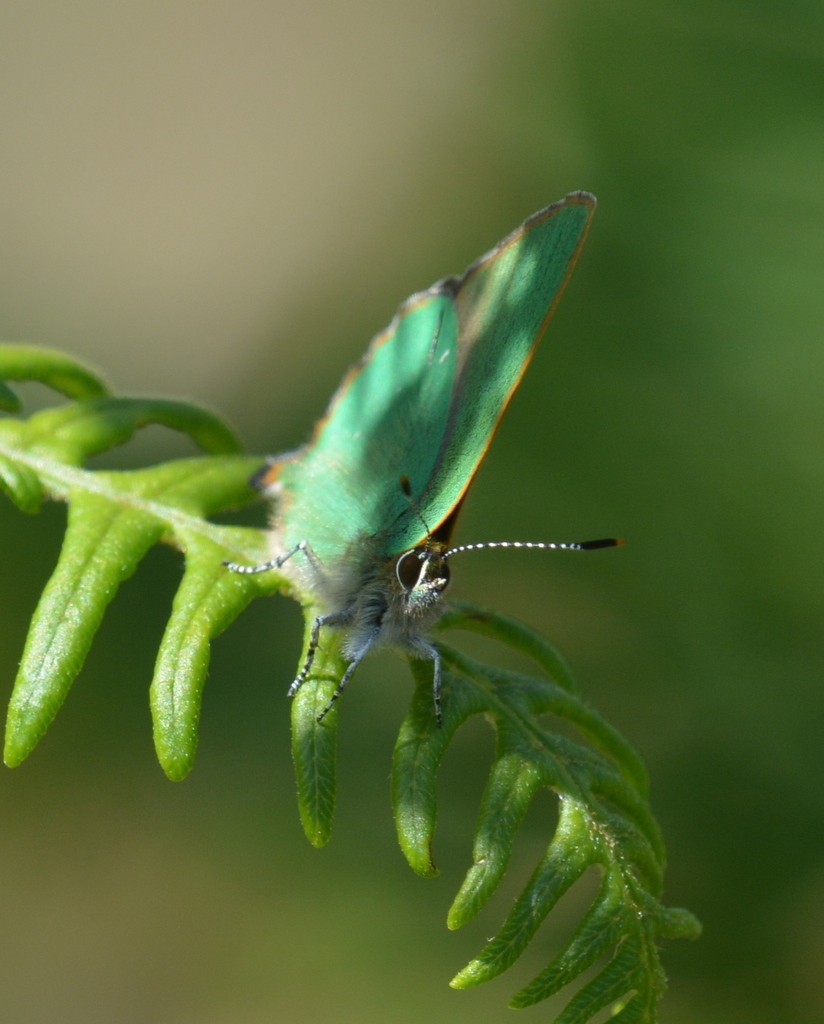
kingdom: Animalia
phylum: Arthropoda
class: Insecta
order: Lepidoptera
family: Lycaenidae
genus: Callophrys
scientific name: Callophrys rubi
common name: Green hairstreak
